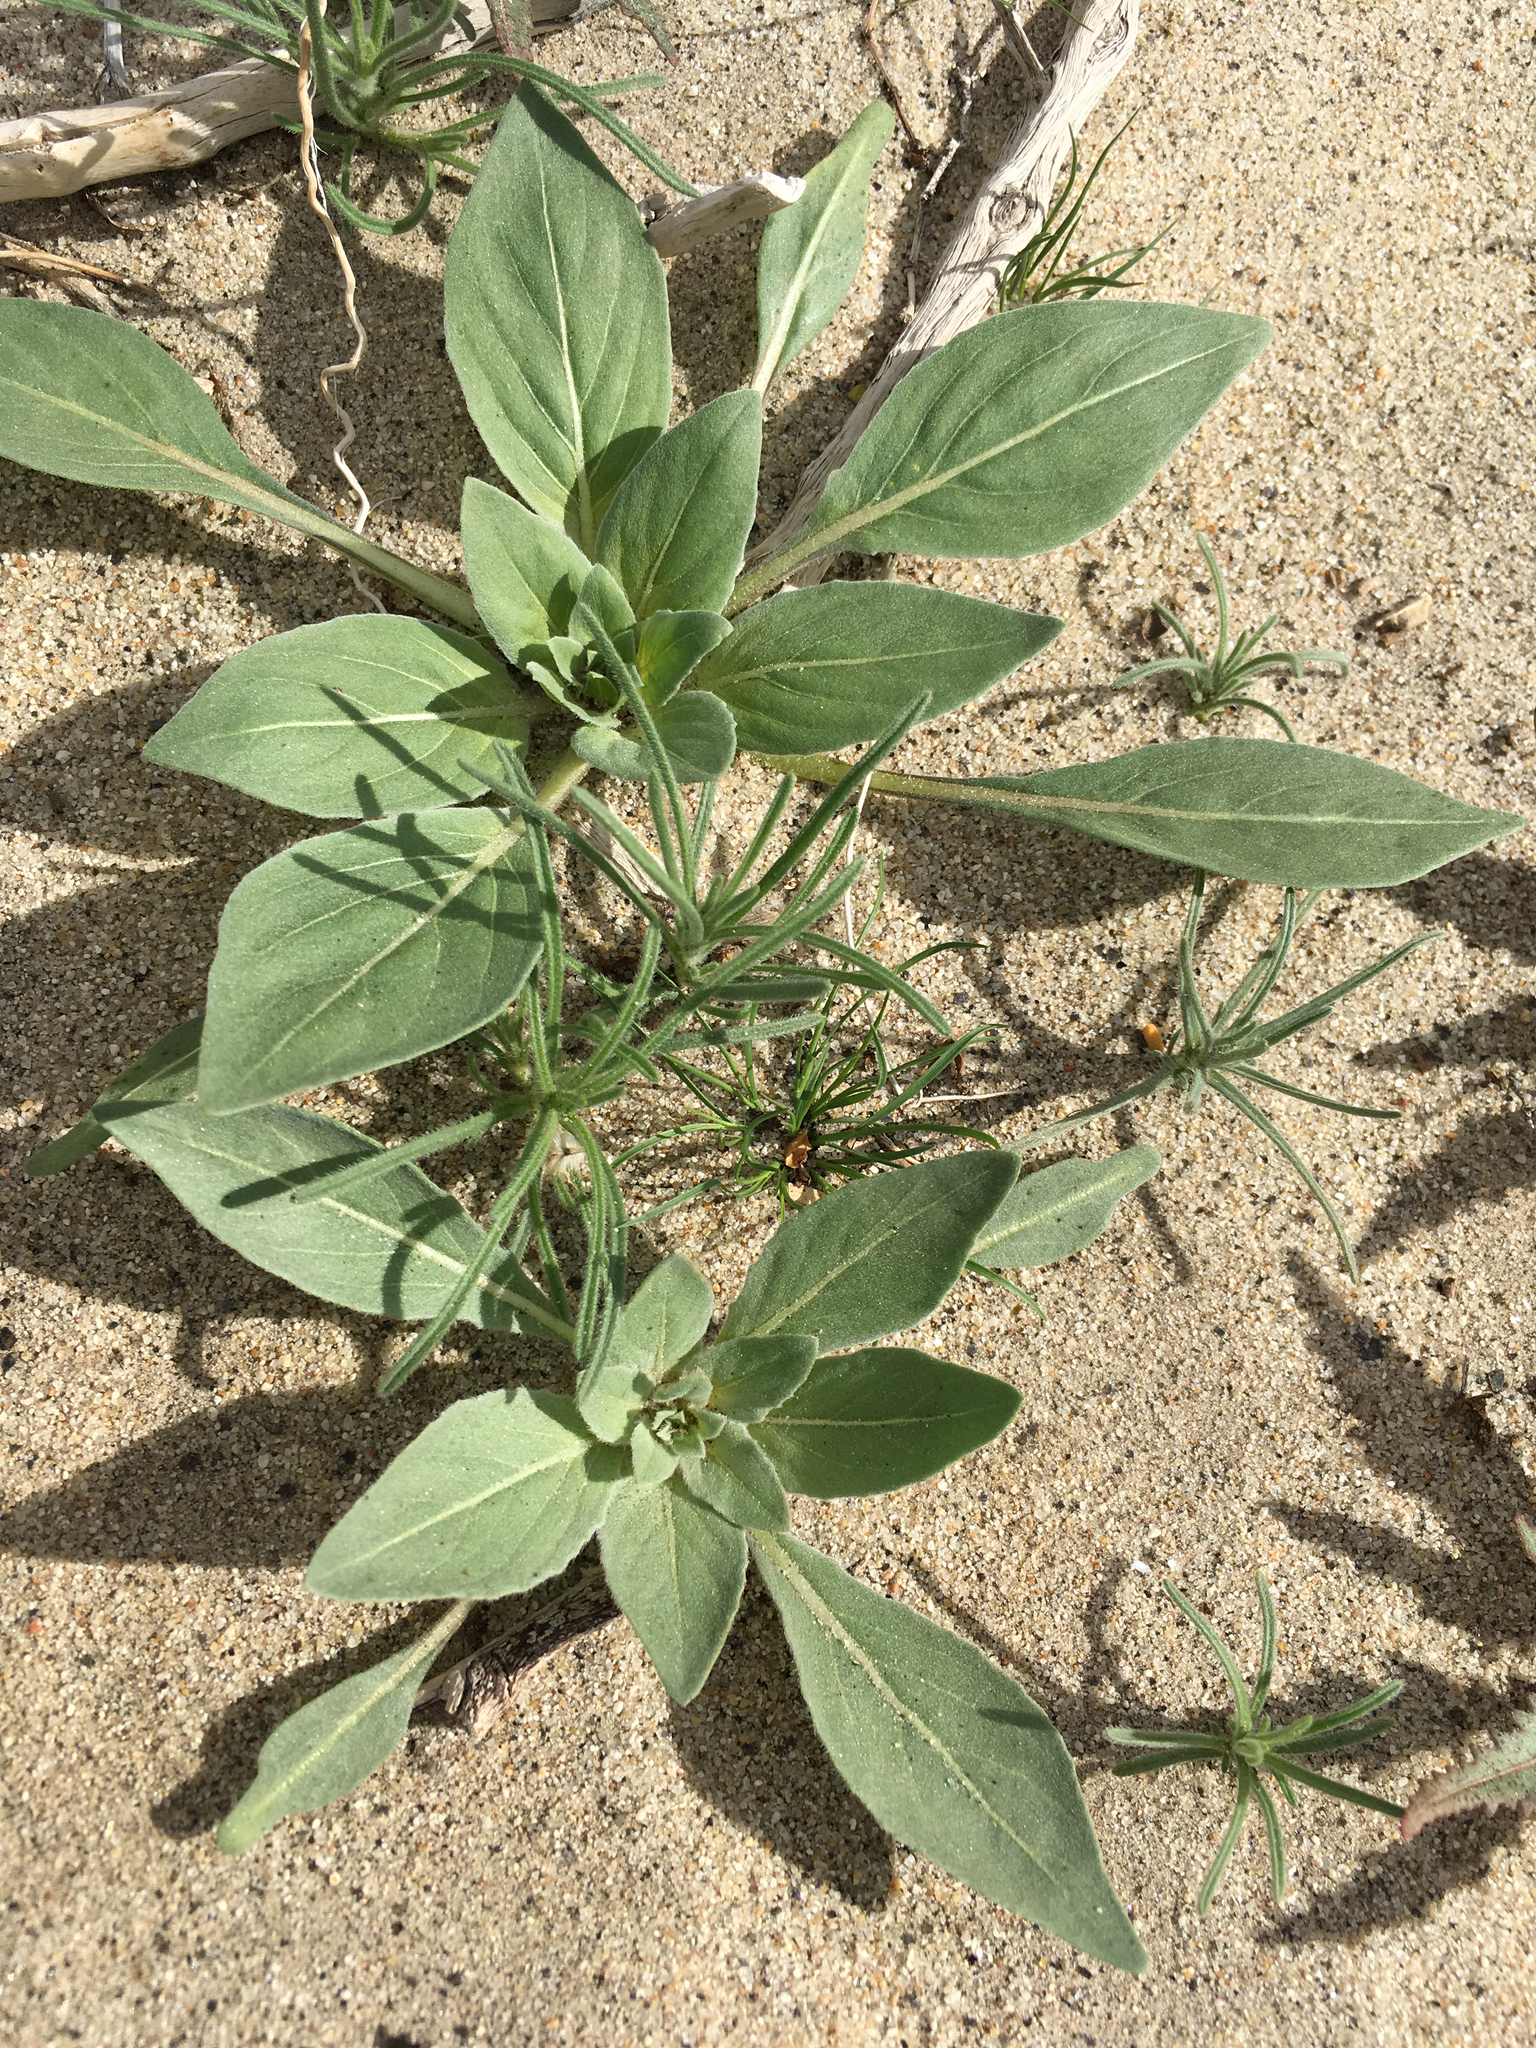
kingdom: Plantae
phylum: Tracheophyta
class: Magnoliopsida
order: Myrtales
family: Onagraceae
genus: Oenothera
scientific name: Oenothera deltoides
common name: Basket evening-primrose
